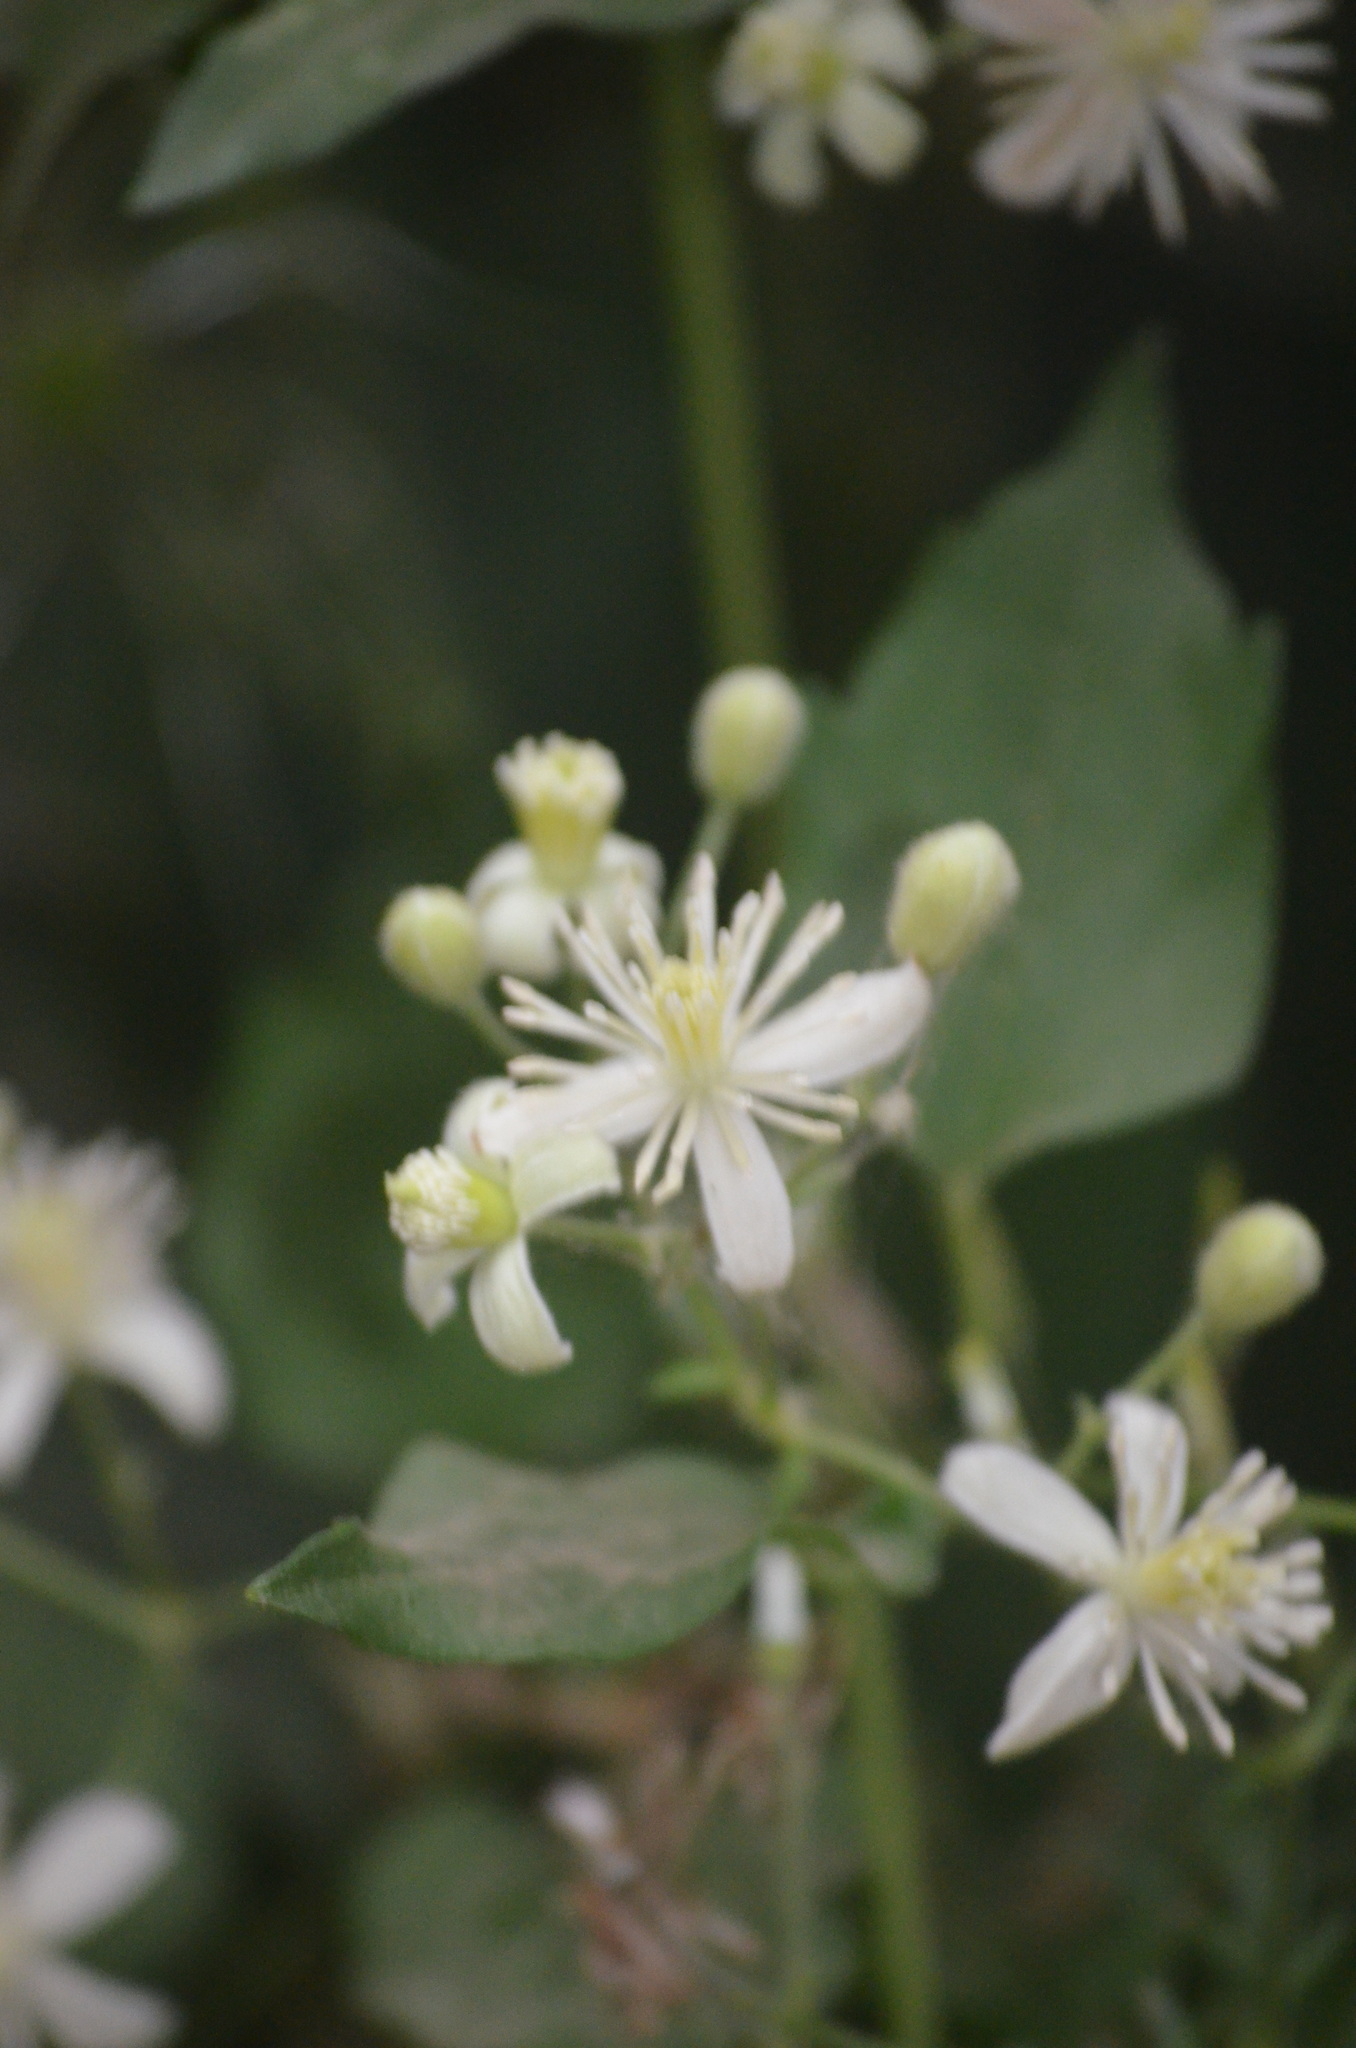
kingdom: Plantae
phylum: Tracheophyta
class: Magnoliopsida
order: Ranunculales
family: Ranunculaceae
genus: Clematis
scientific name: Clematis vitalba
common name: Evergreen clematis
